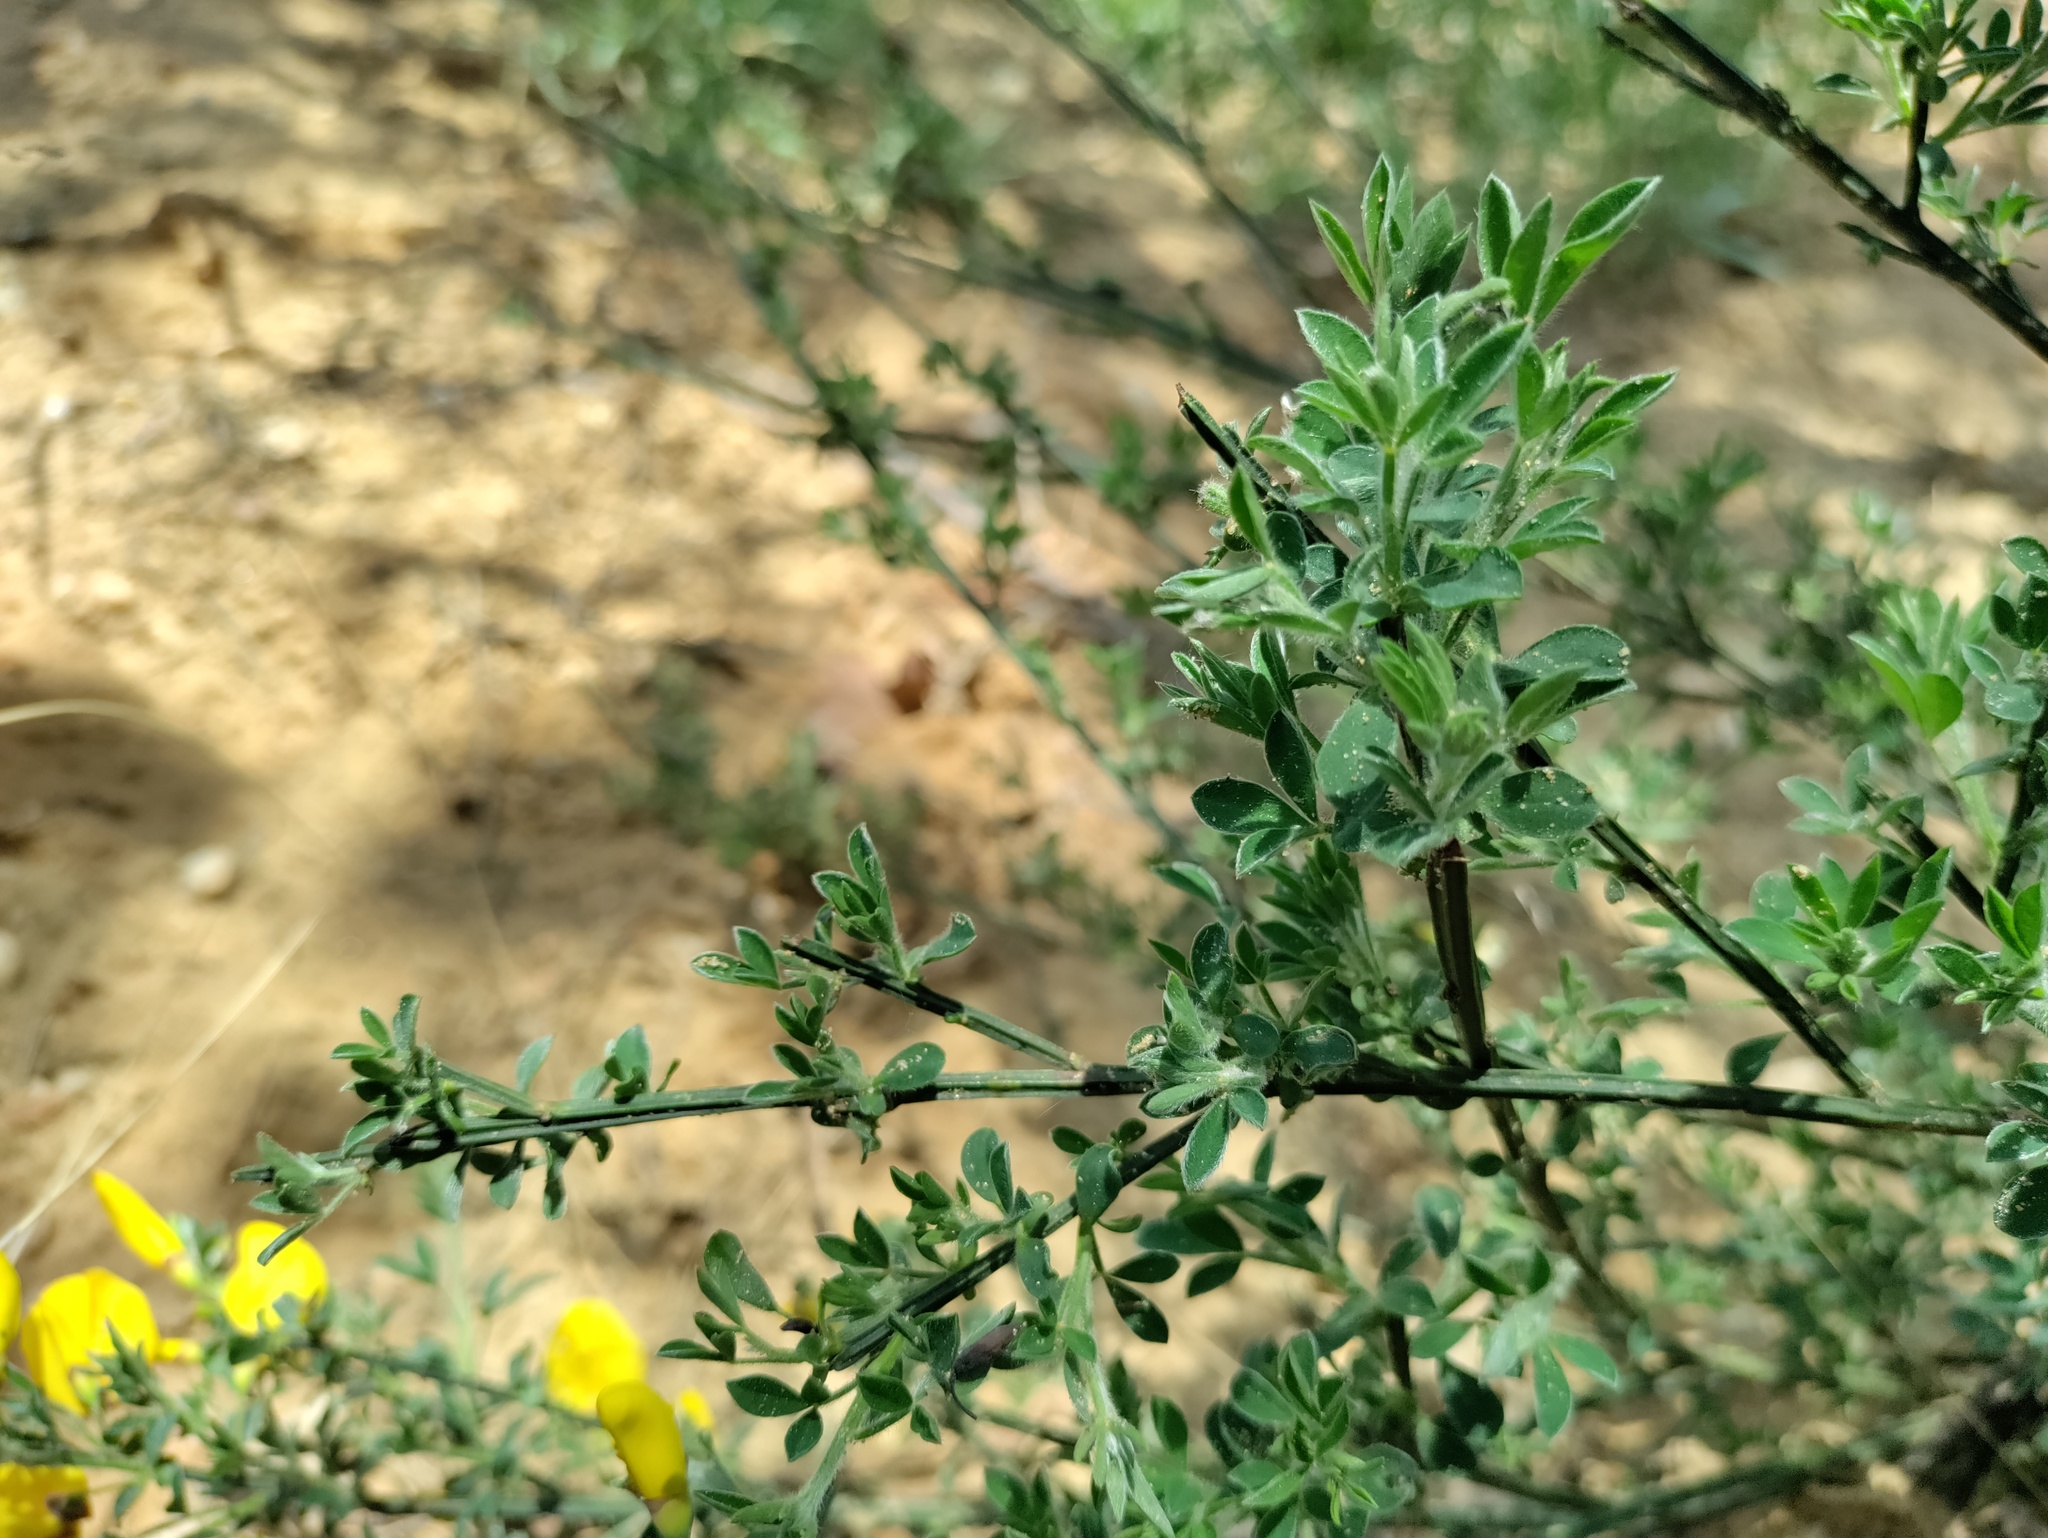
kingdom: Plantae
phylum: Tracheophyta
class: Magnoliopsida
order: Fabales
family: Fabaceae
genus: Cytisus
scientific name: Cytisus scoparius
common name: Scotch broom
